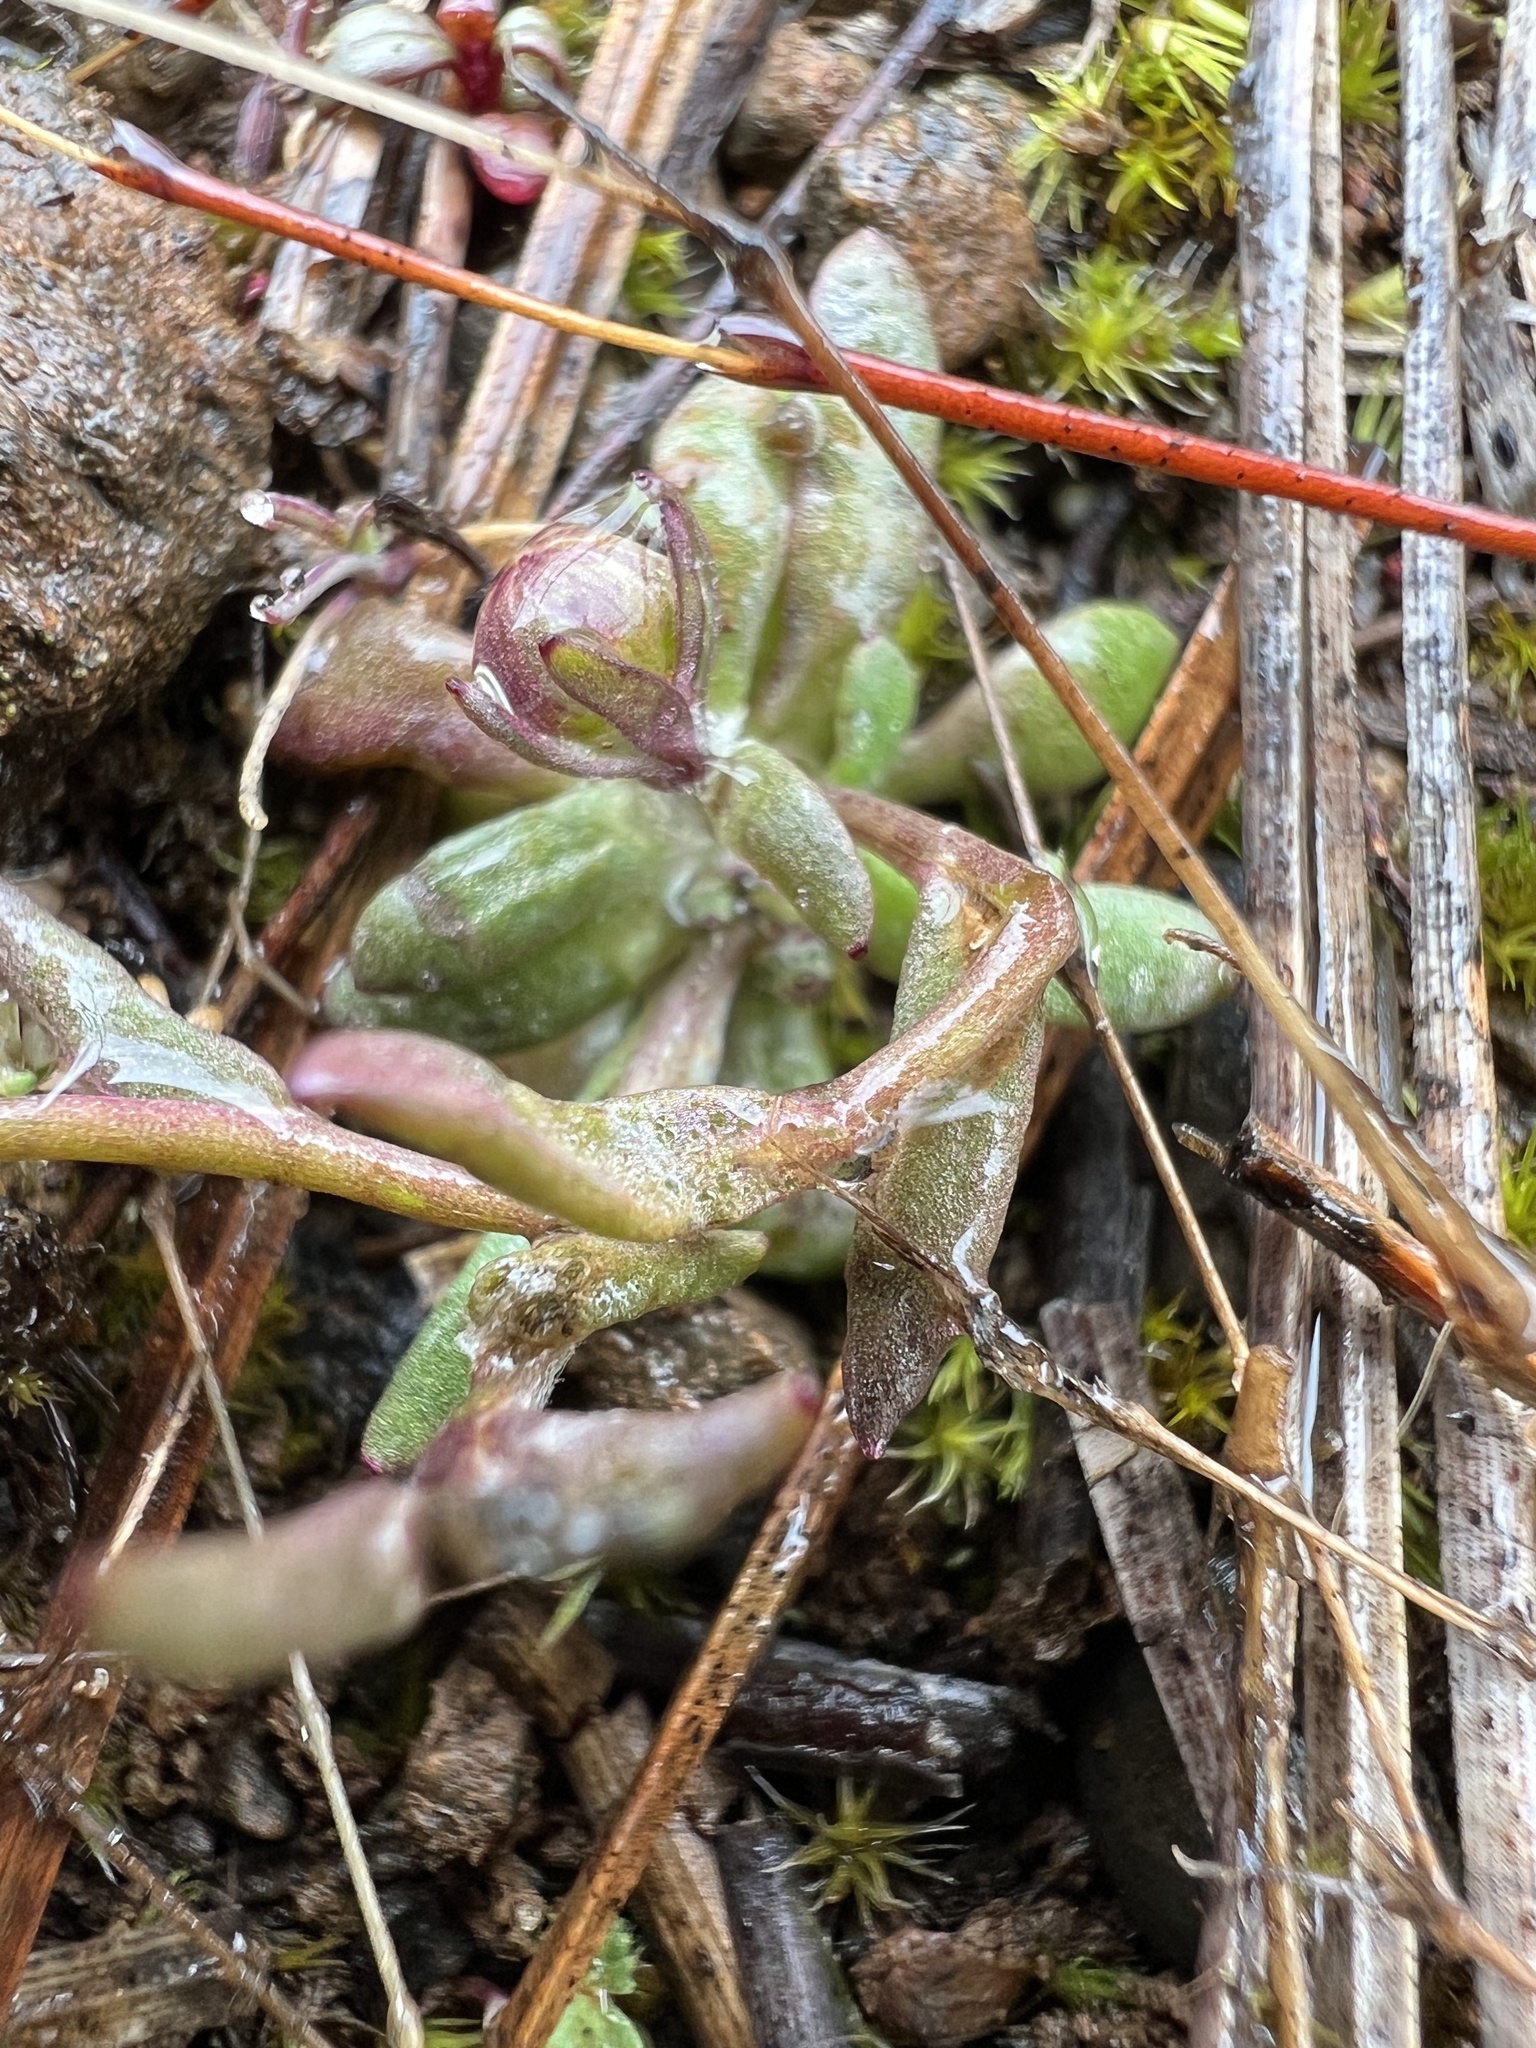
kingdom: Plantae
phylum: Tracheophyta
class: Magnoliopsida
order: Asterales
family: Asteraceae
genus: Crocidium
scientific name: Crocidium multicaule
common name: Common spring gold
